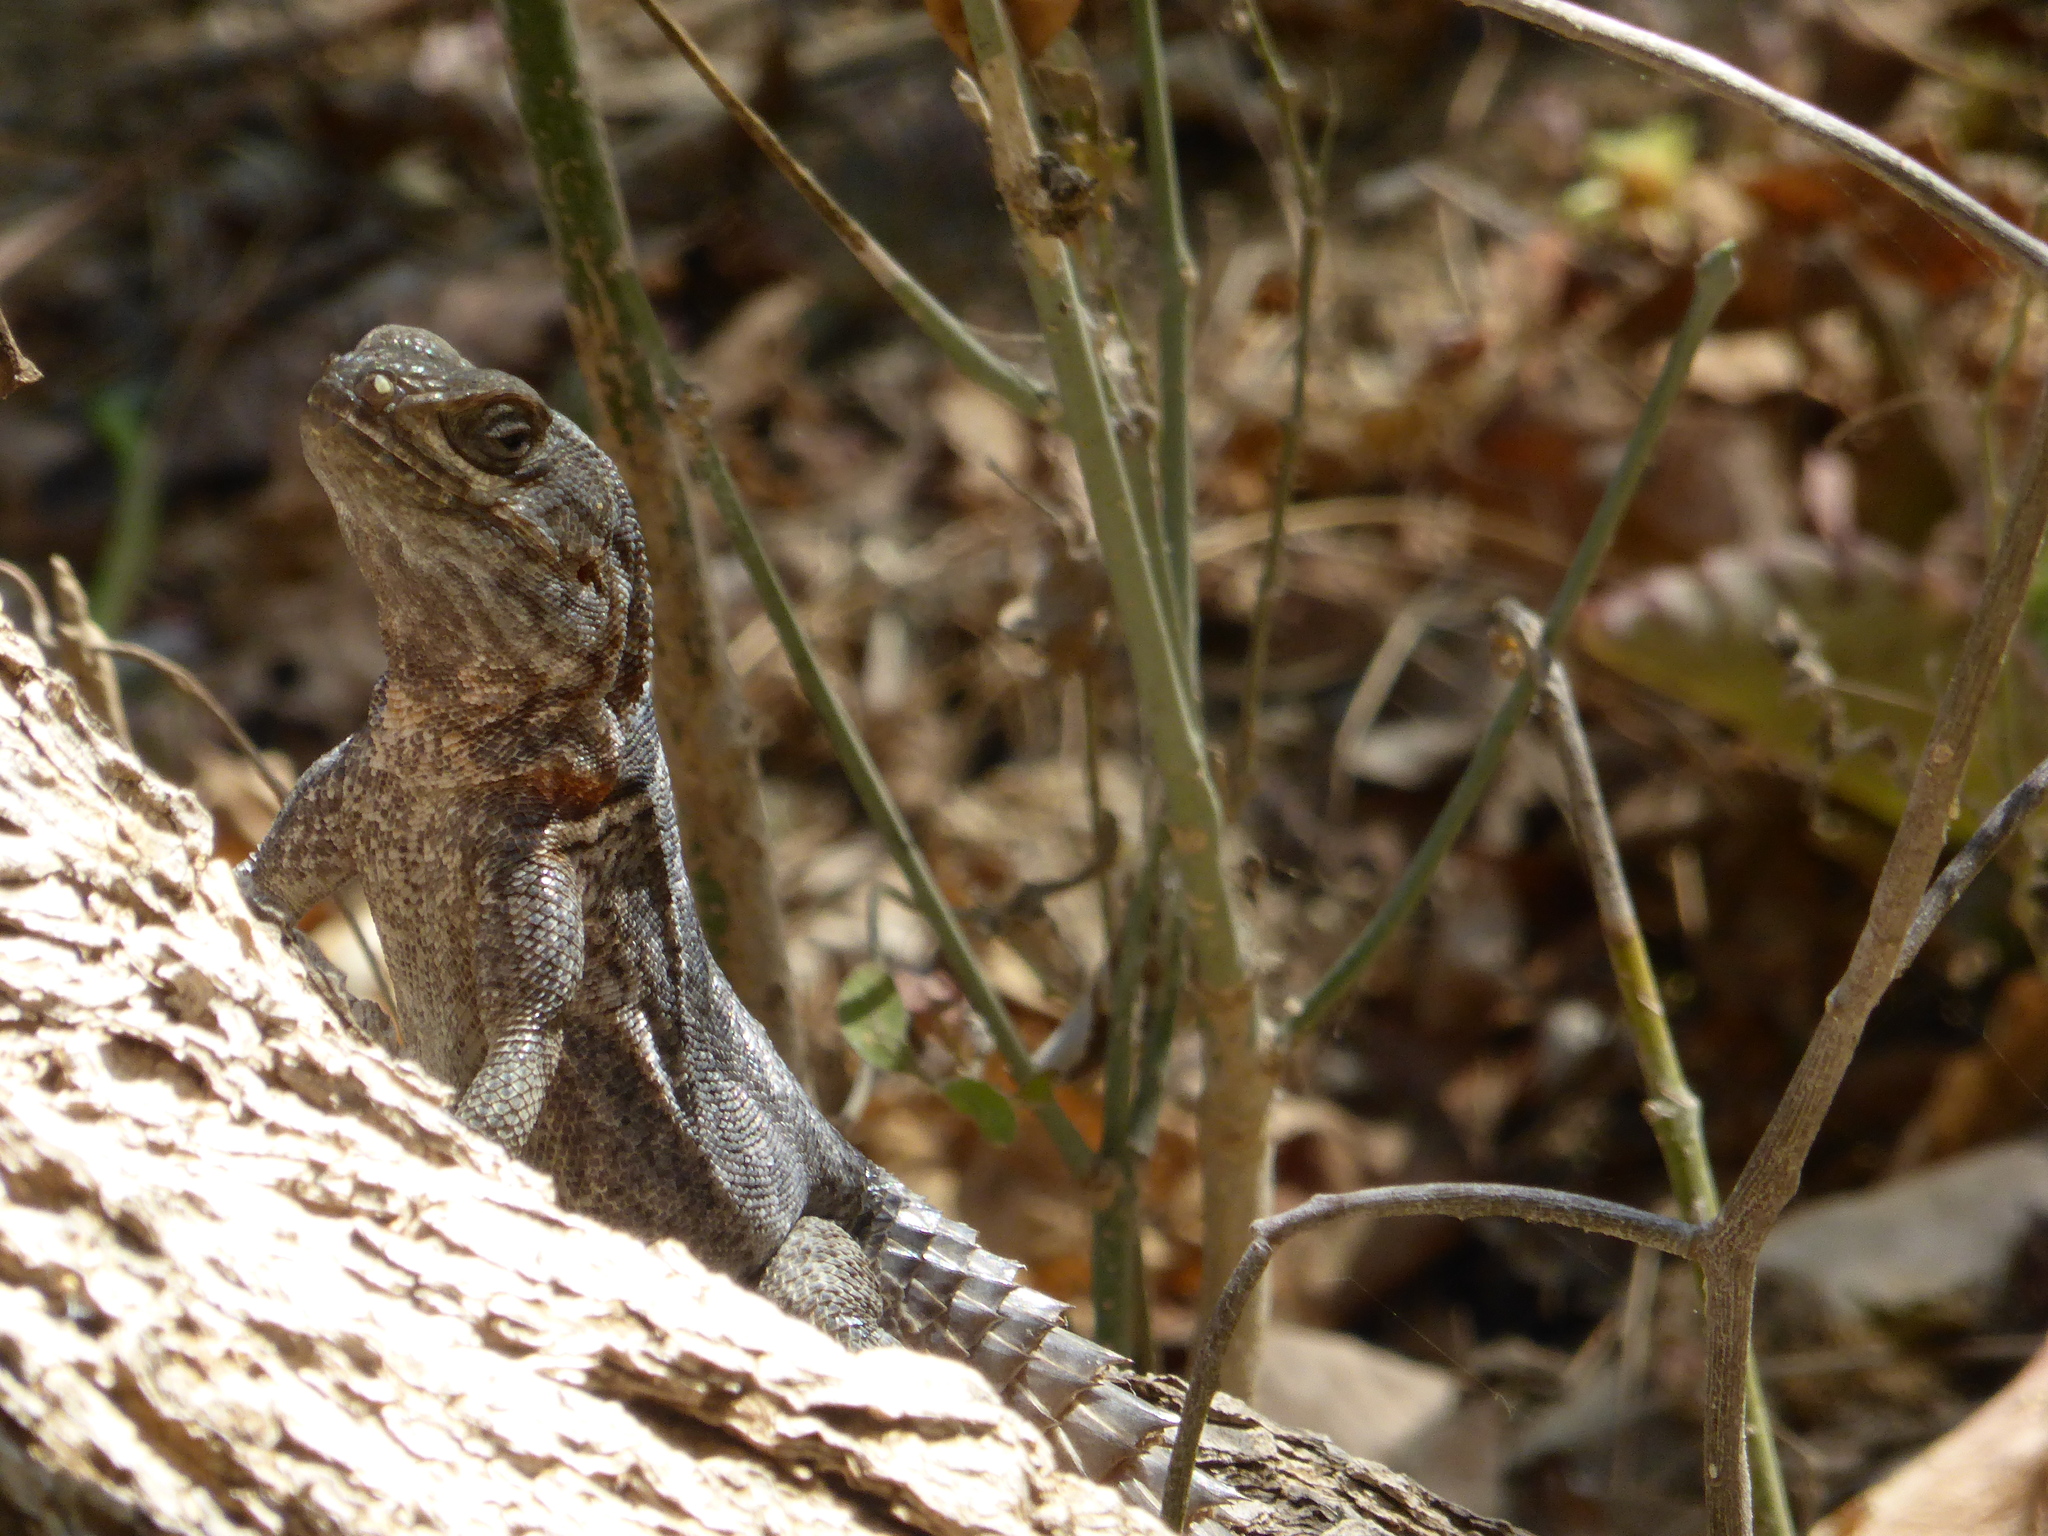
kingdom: Animalia
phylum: Chordata
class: Squamata
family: Opluridae
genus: Oplurus
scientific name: Oplurus cyclurus
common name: Merrem's madagascar swift
